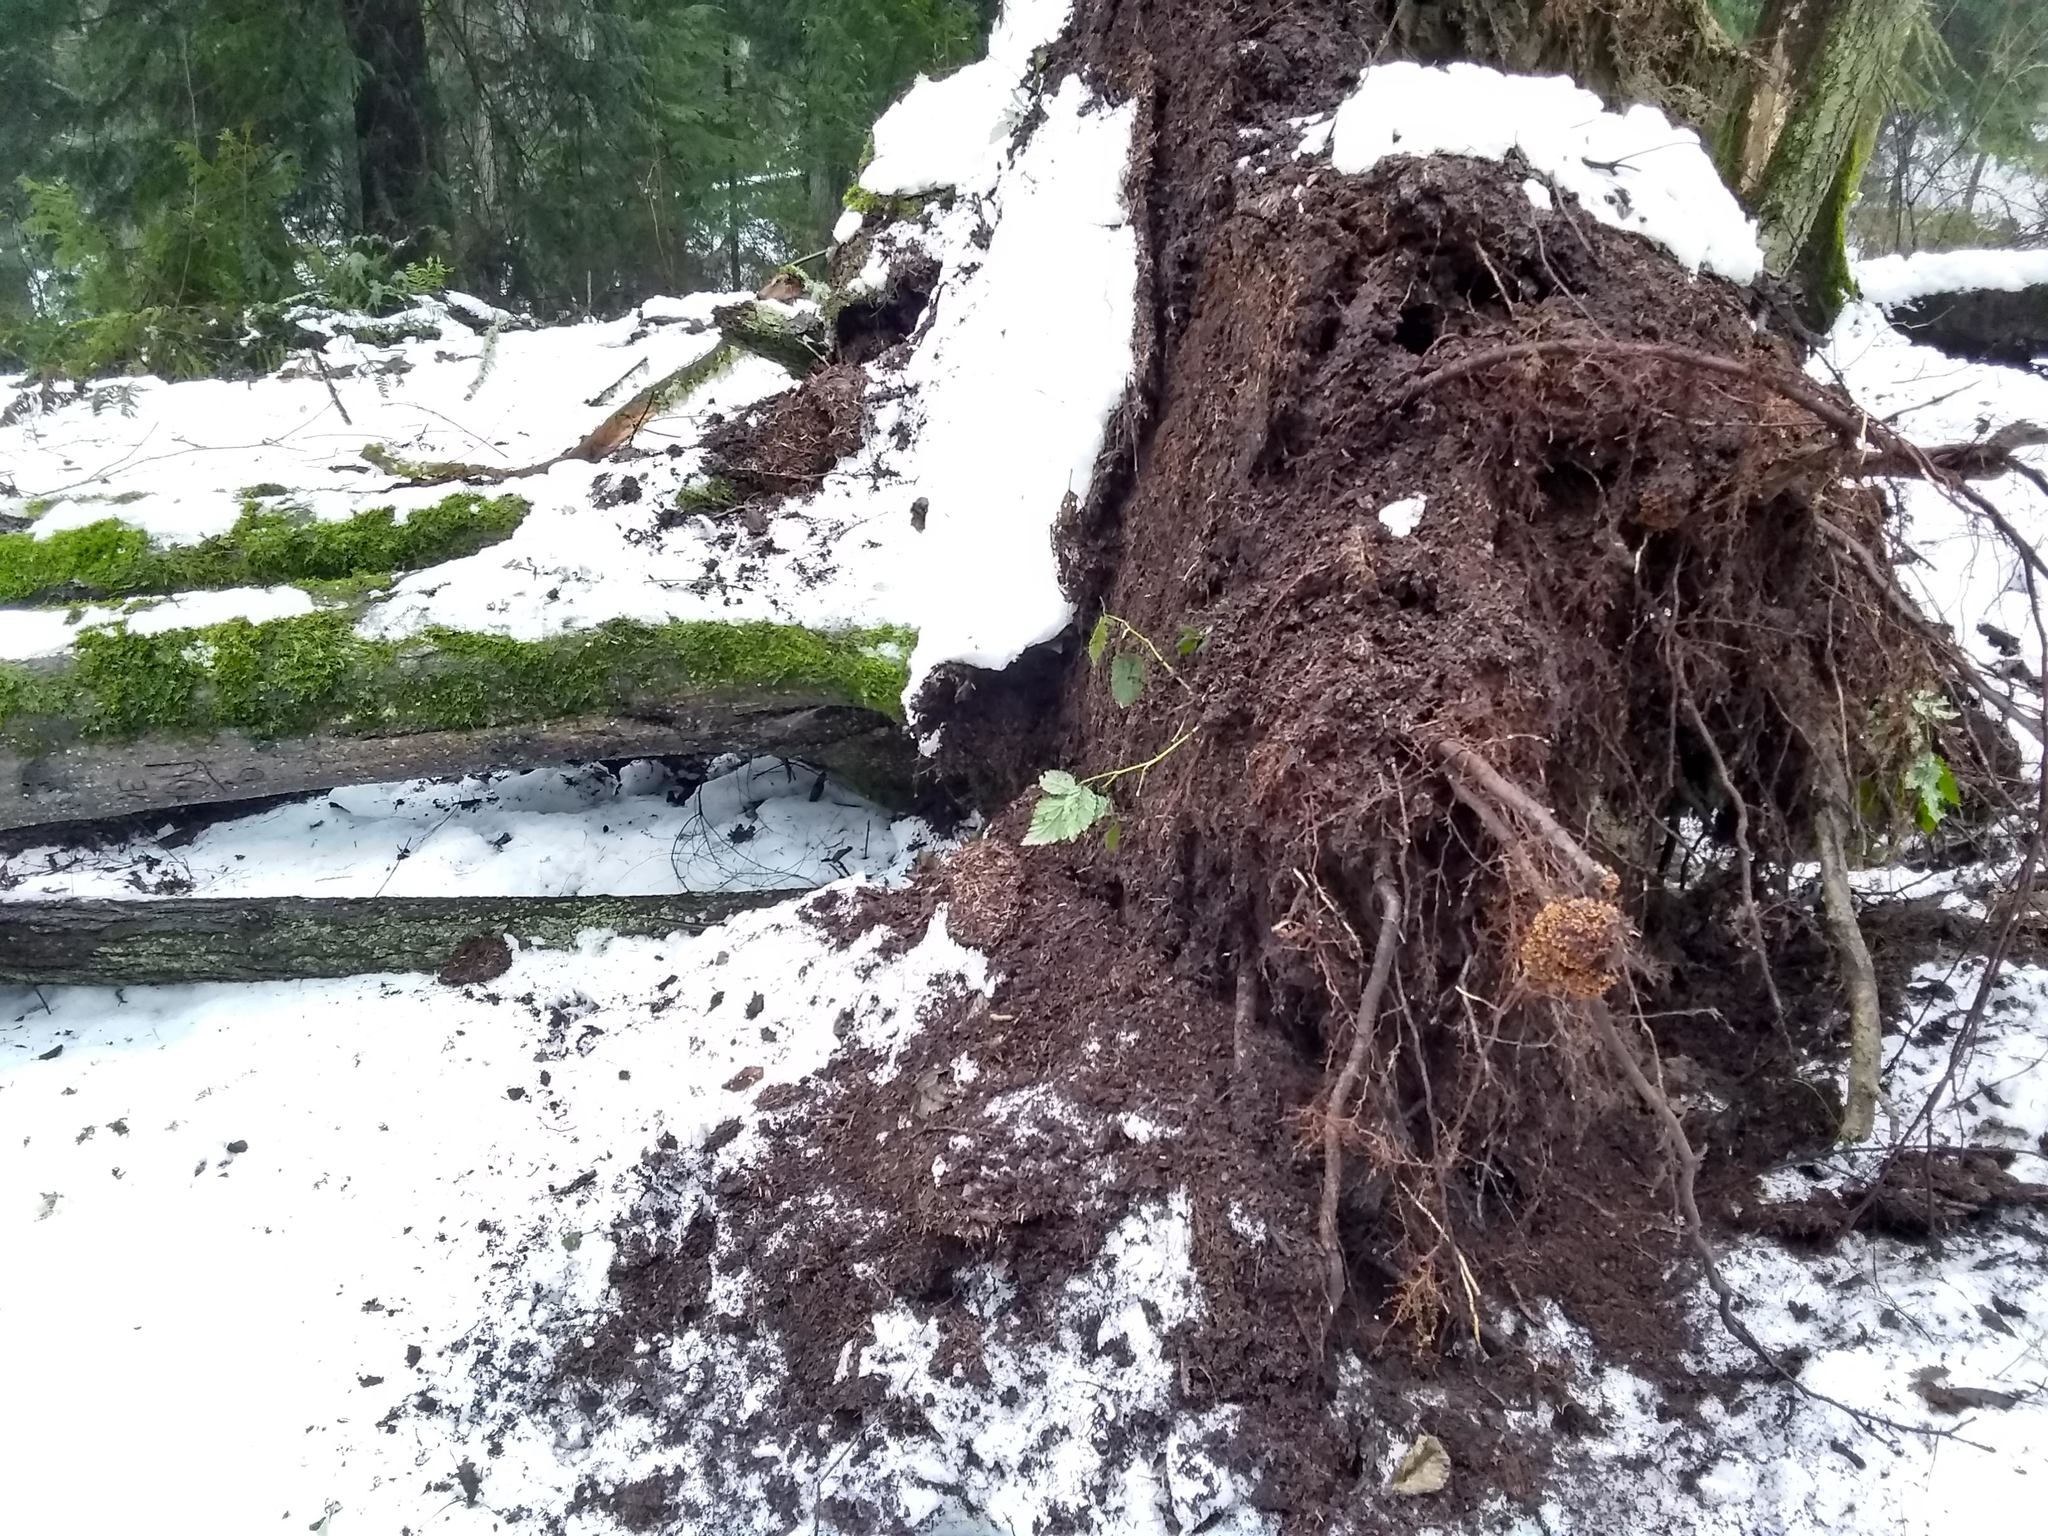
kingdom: Plantae
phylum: Tracheophyta
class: Magnoliopsida
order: Fagales
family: Betulaceae
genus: Alnus
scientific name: Alnus rubra
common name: Red alder
